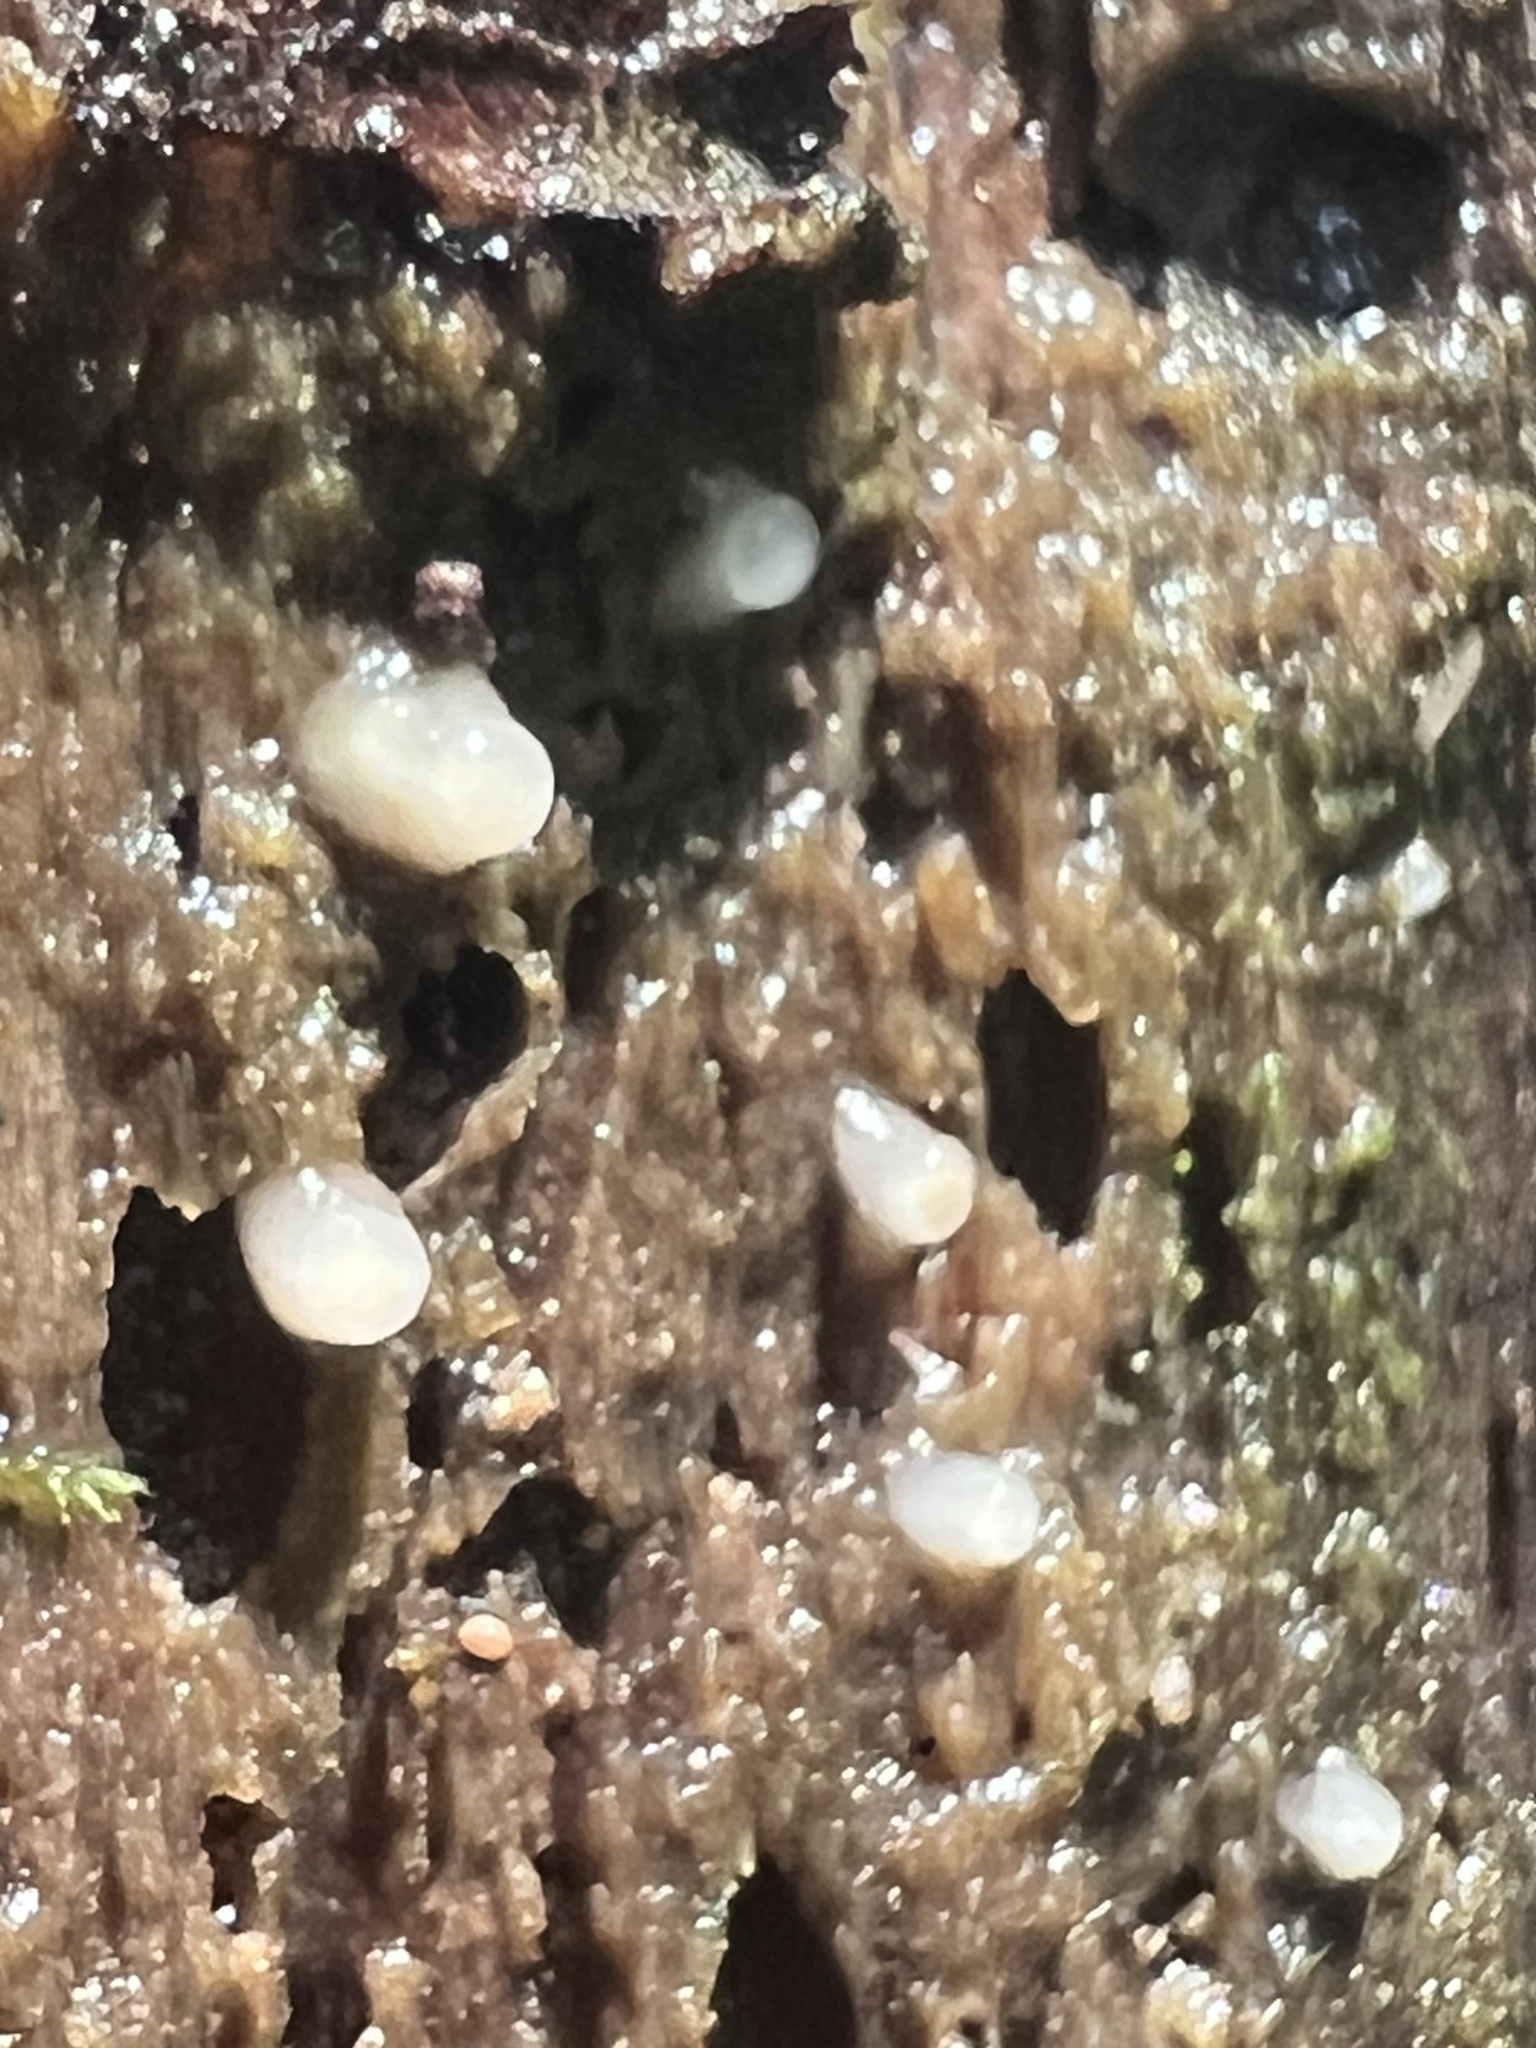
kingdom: Fungi
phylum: Basidiomycota
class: Atractiellomycetes
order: Atractiellales
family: Phleogenaceae
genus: Helicogloea
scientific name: Helicogloea compressa
